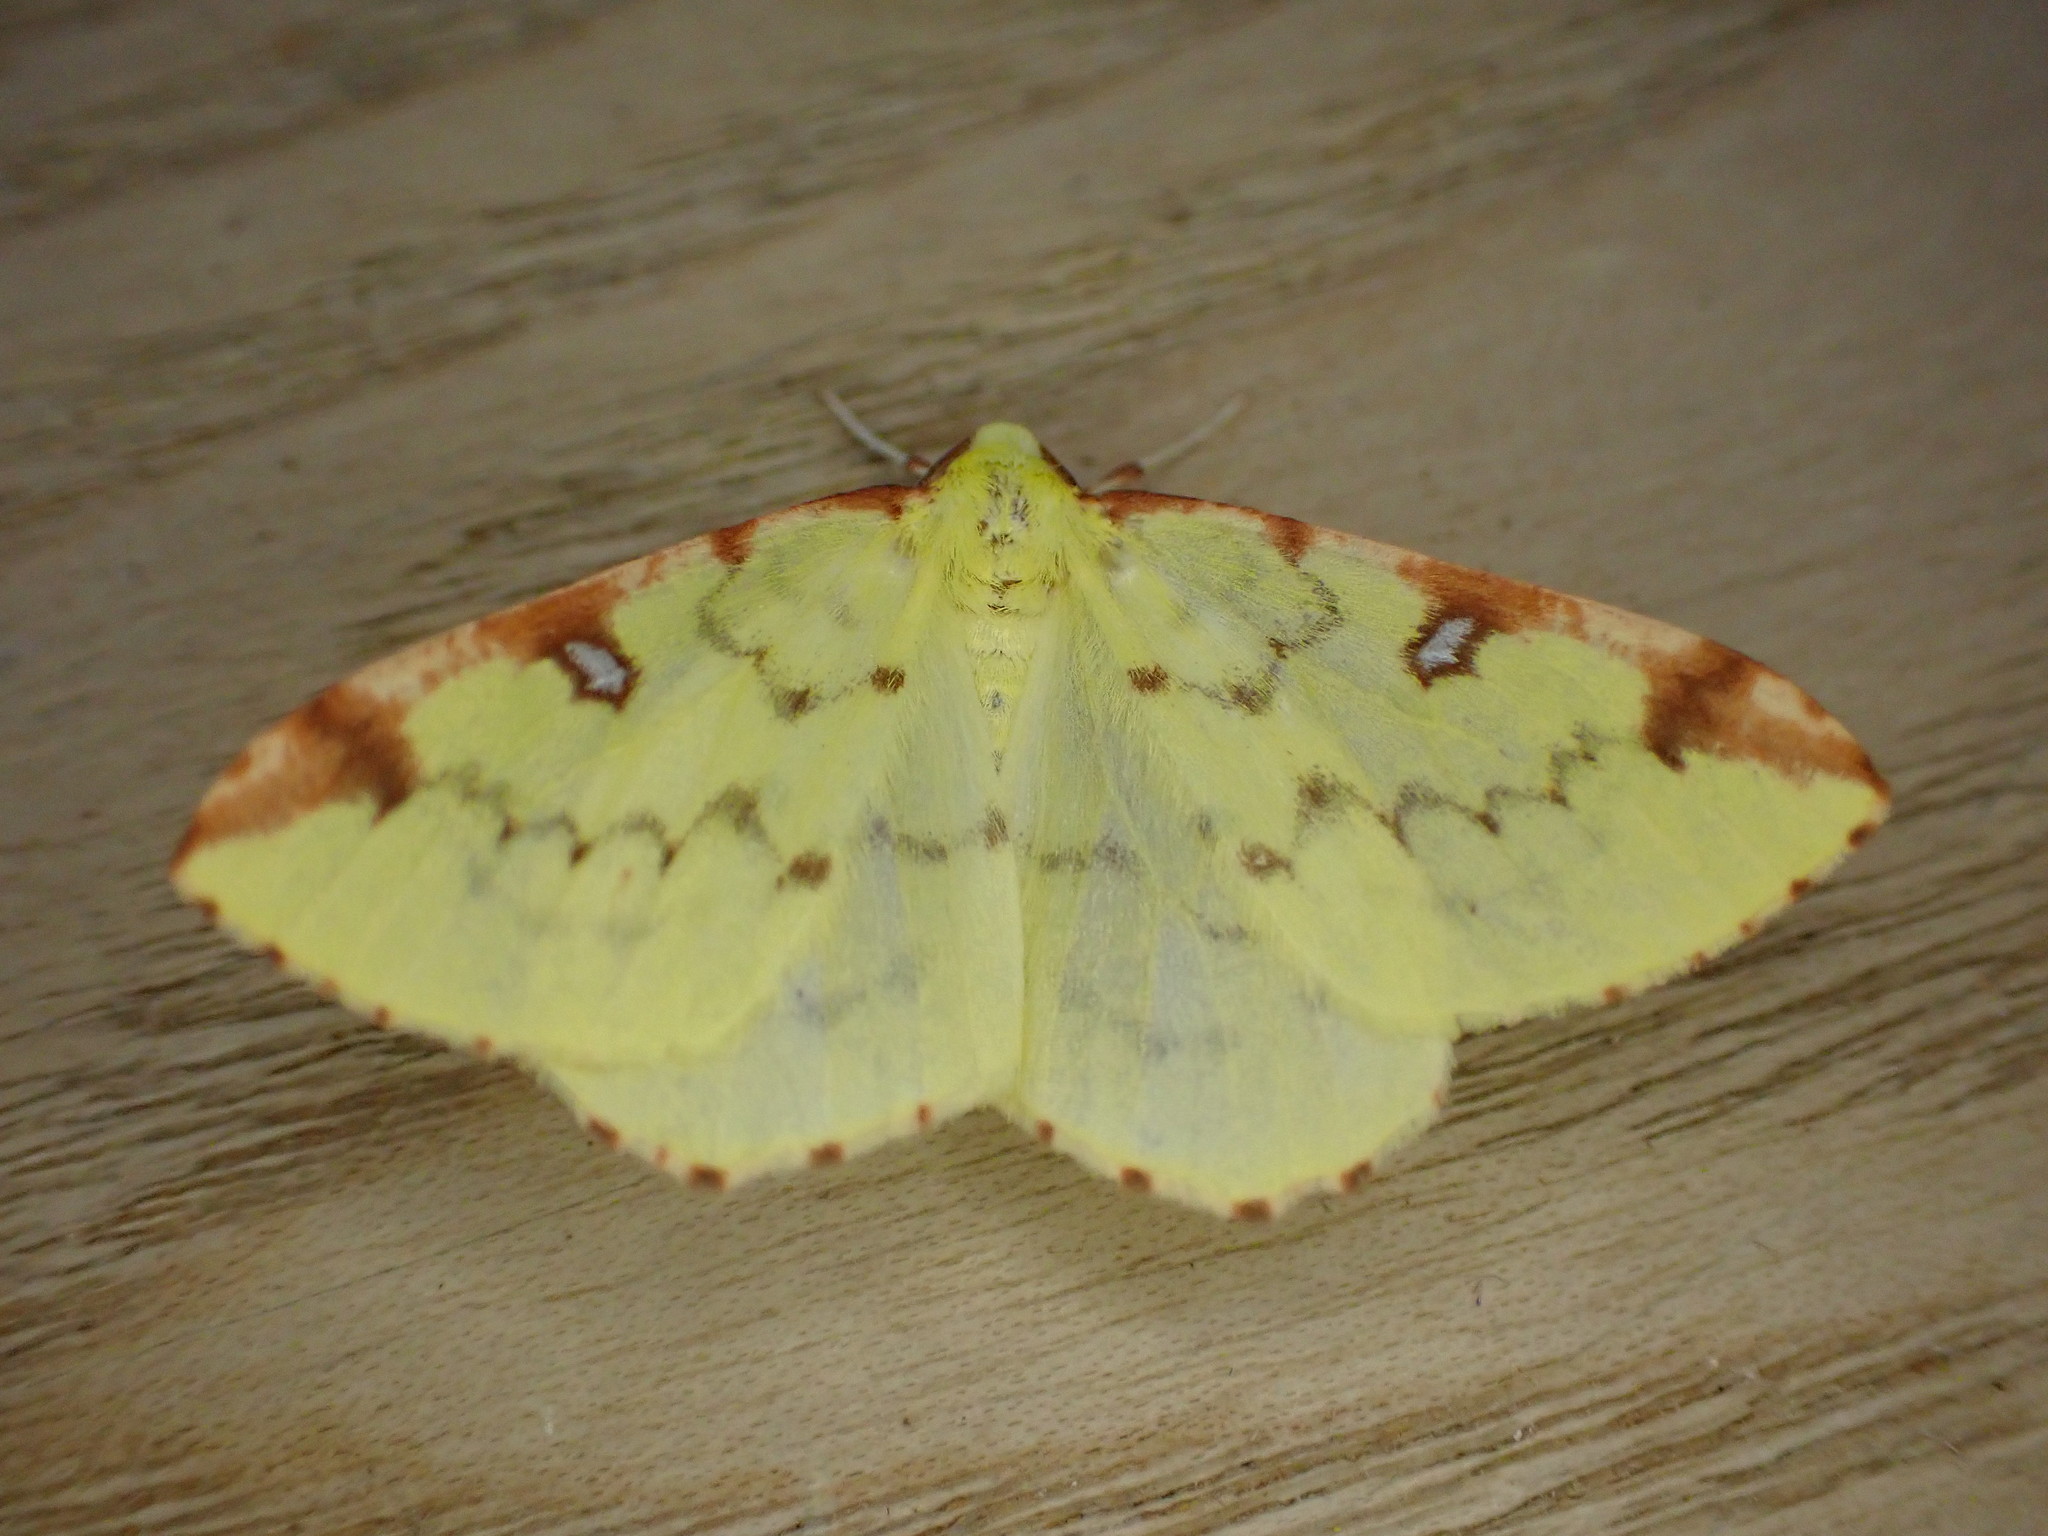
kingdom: Animalia
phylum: Arthropoda
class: Insecta
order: Lepidoptera
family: Geometridae
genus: Opisthograptis
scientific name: Opisthograptis luteolata
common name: Brimstone moth
